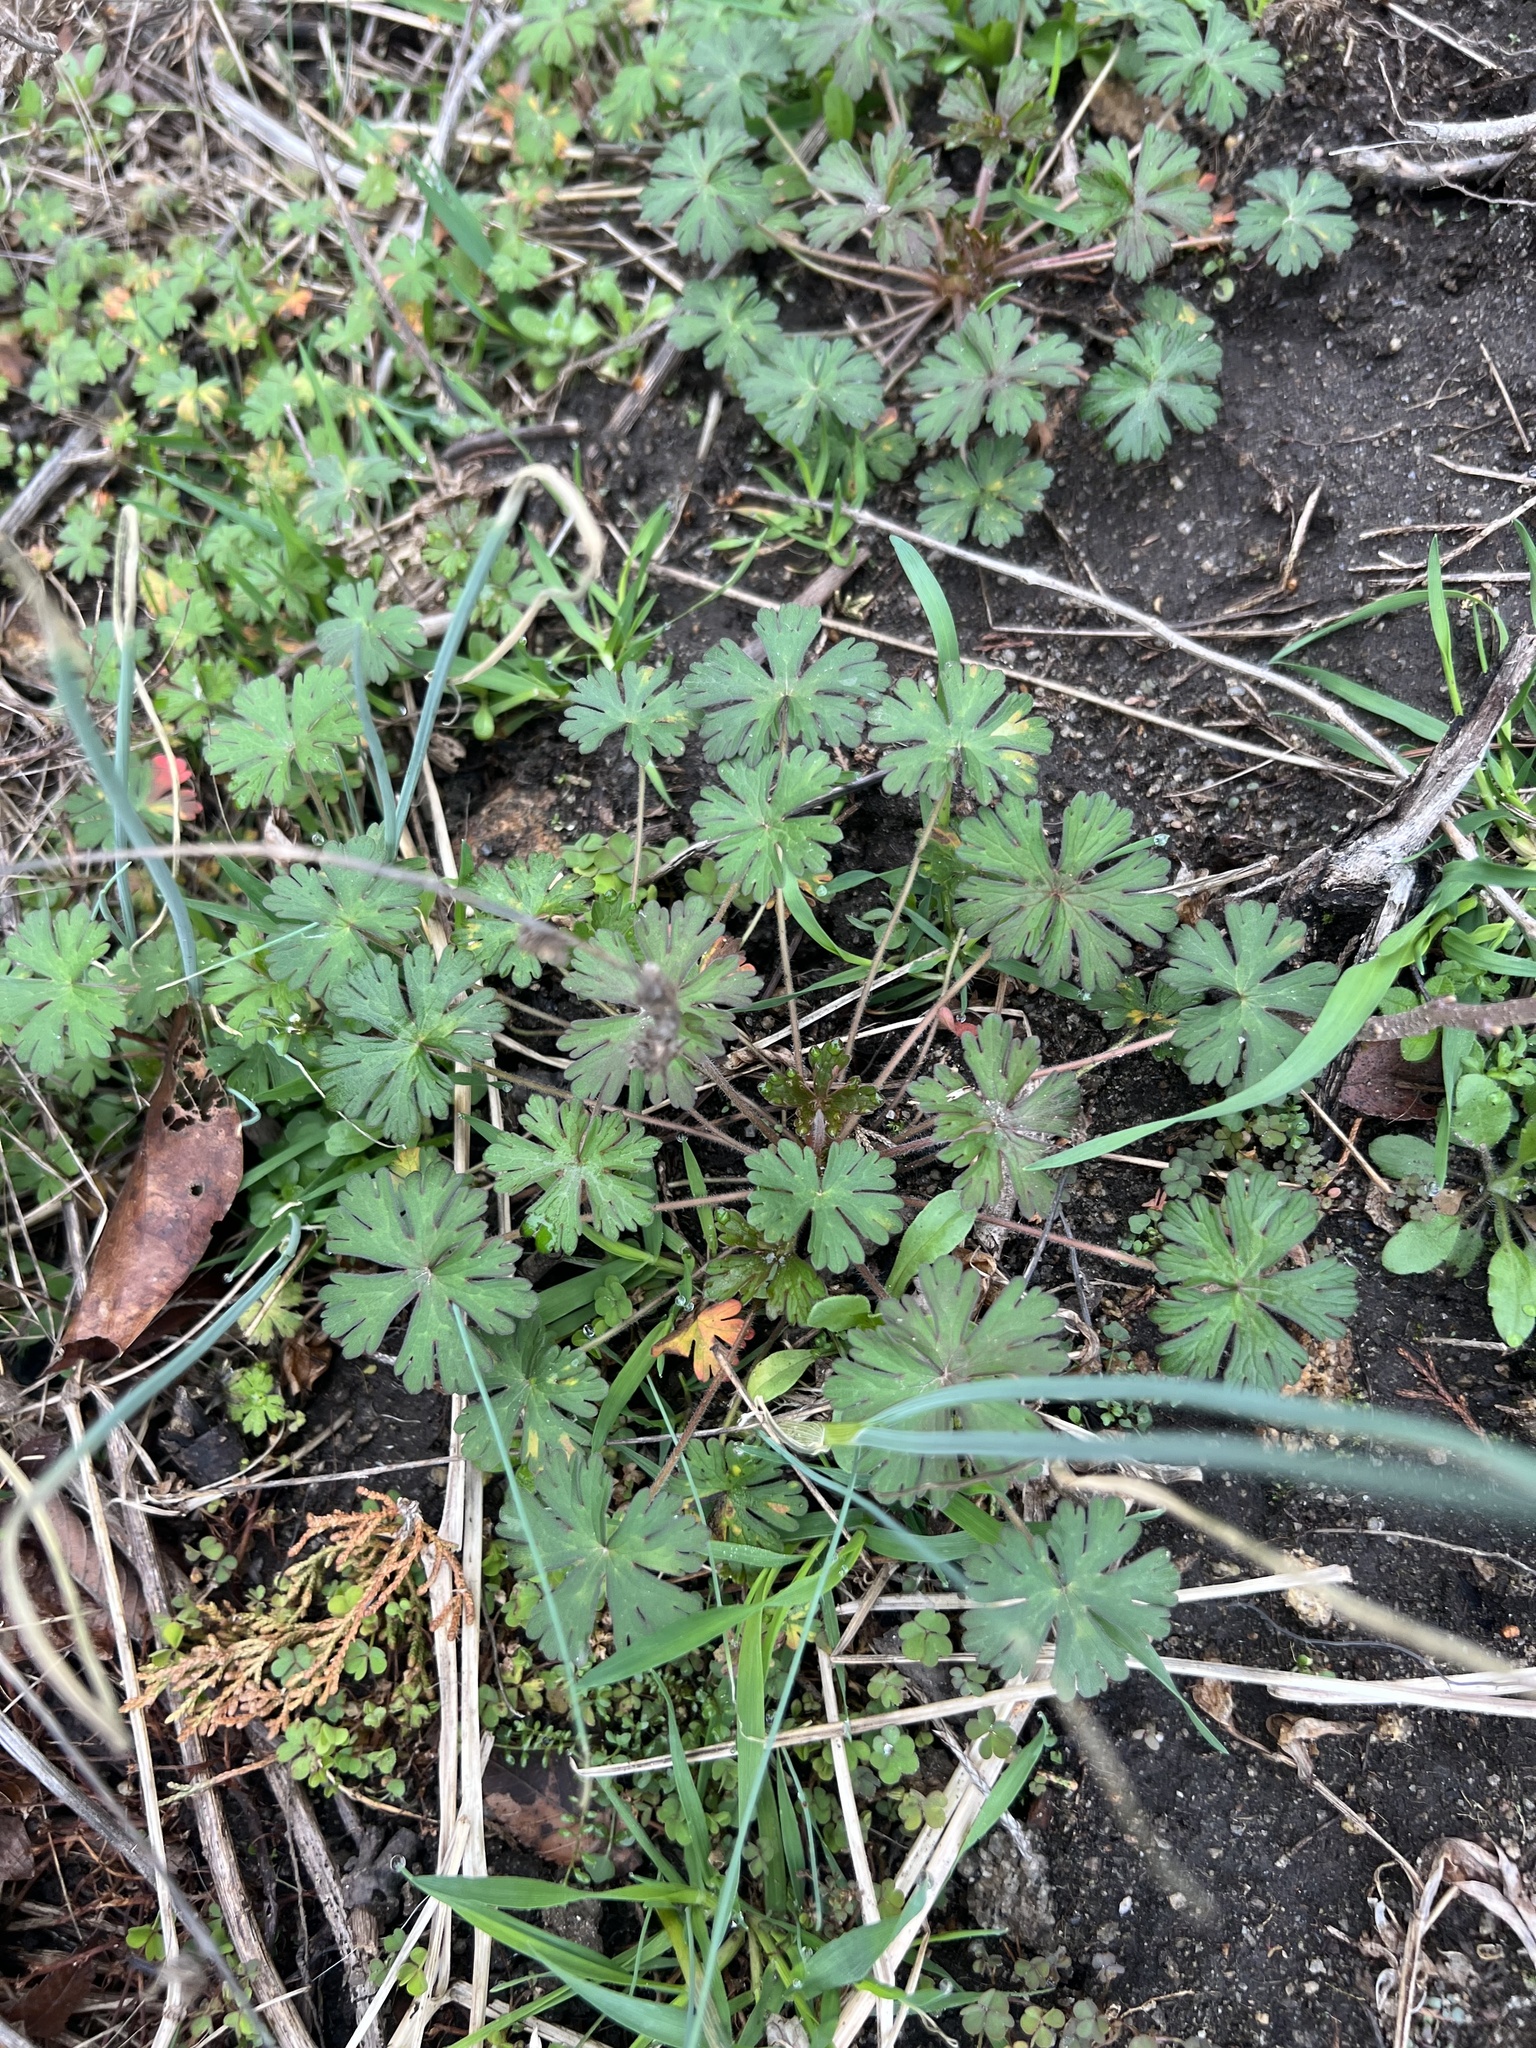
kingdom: Plantae
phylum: Tracheophyta
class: Magnoliopsida
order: Geraniales
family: Geraniaceae
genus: Geranium
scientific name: Geranium carolinianum
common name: Carolina crane's-bill
